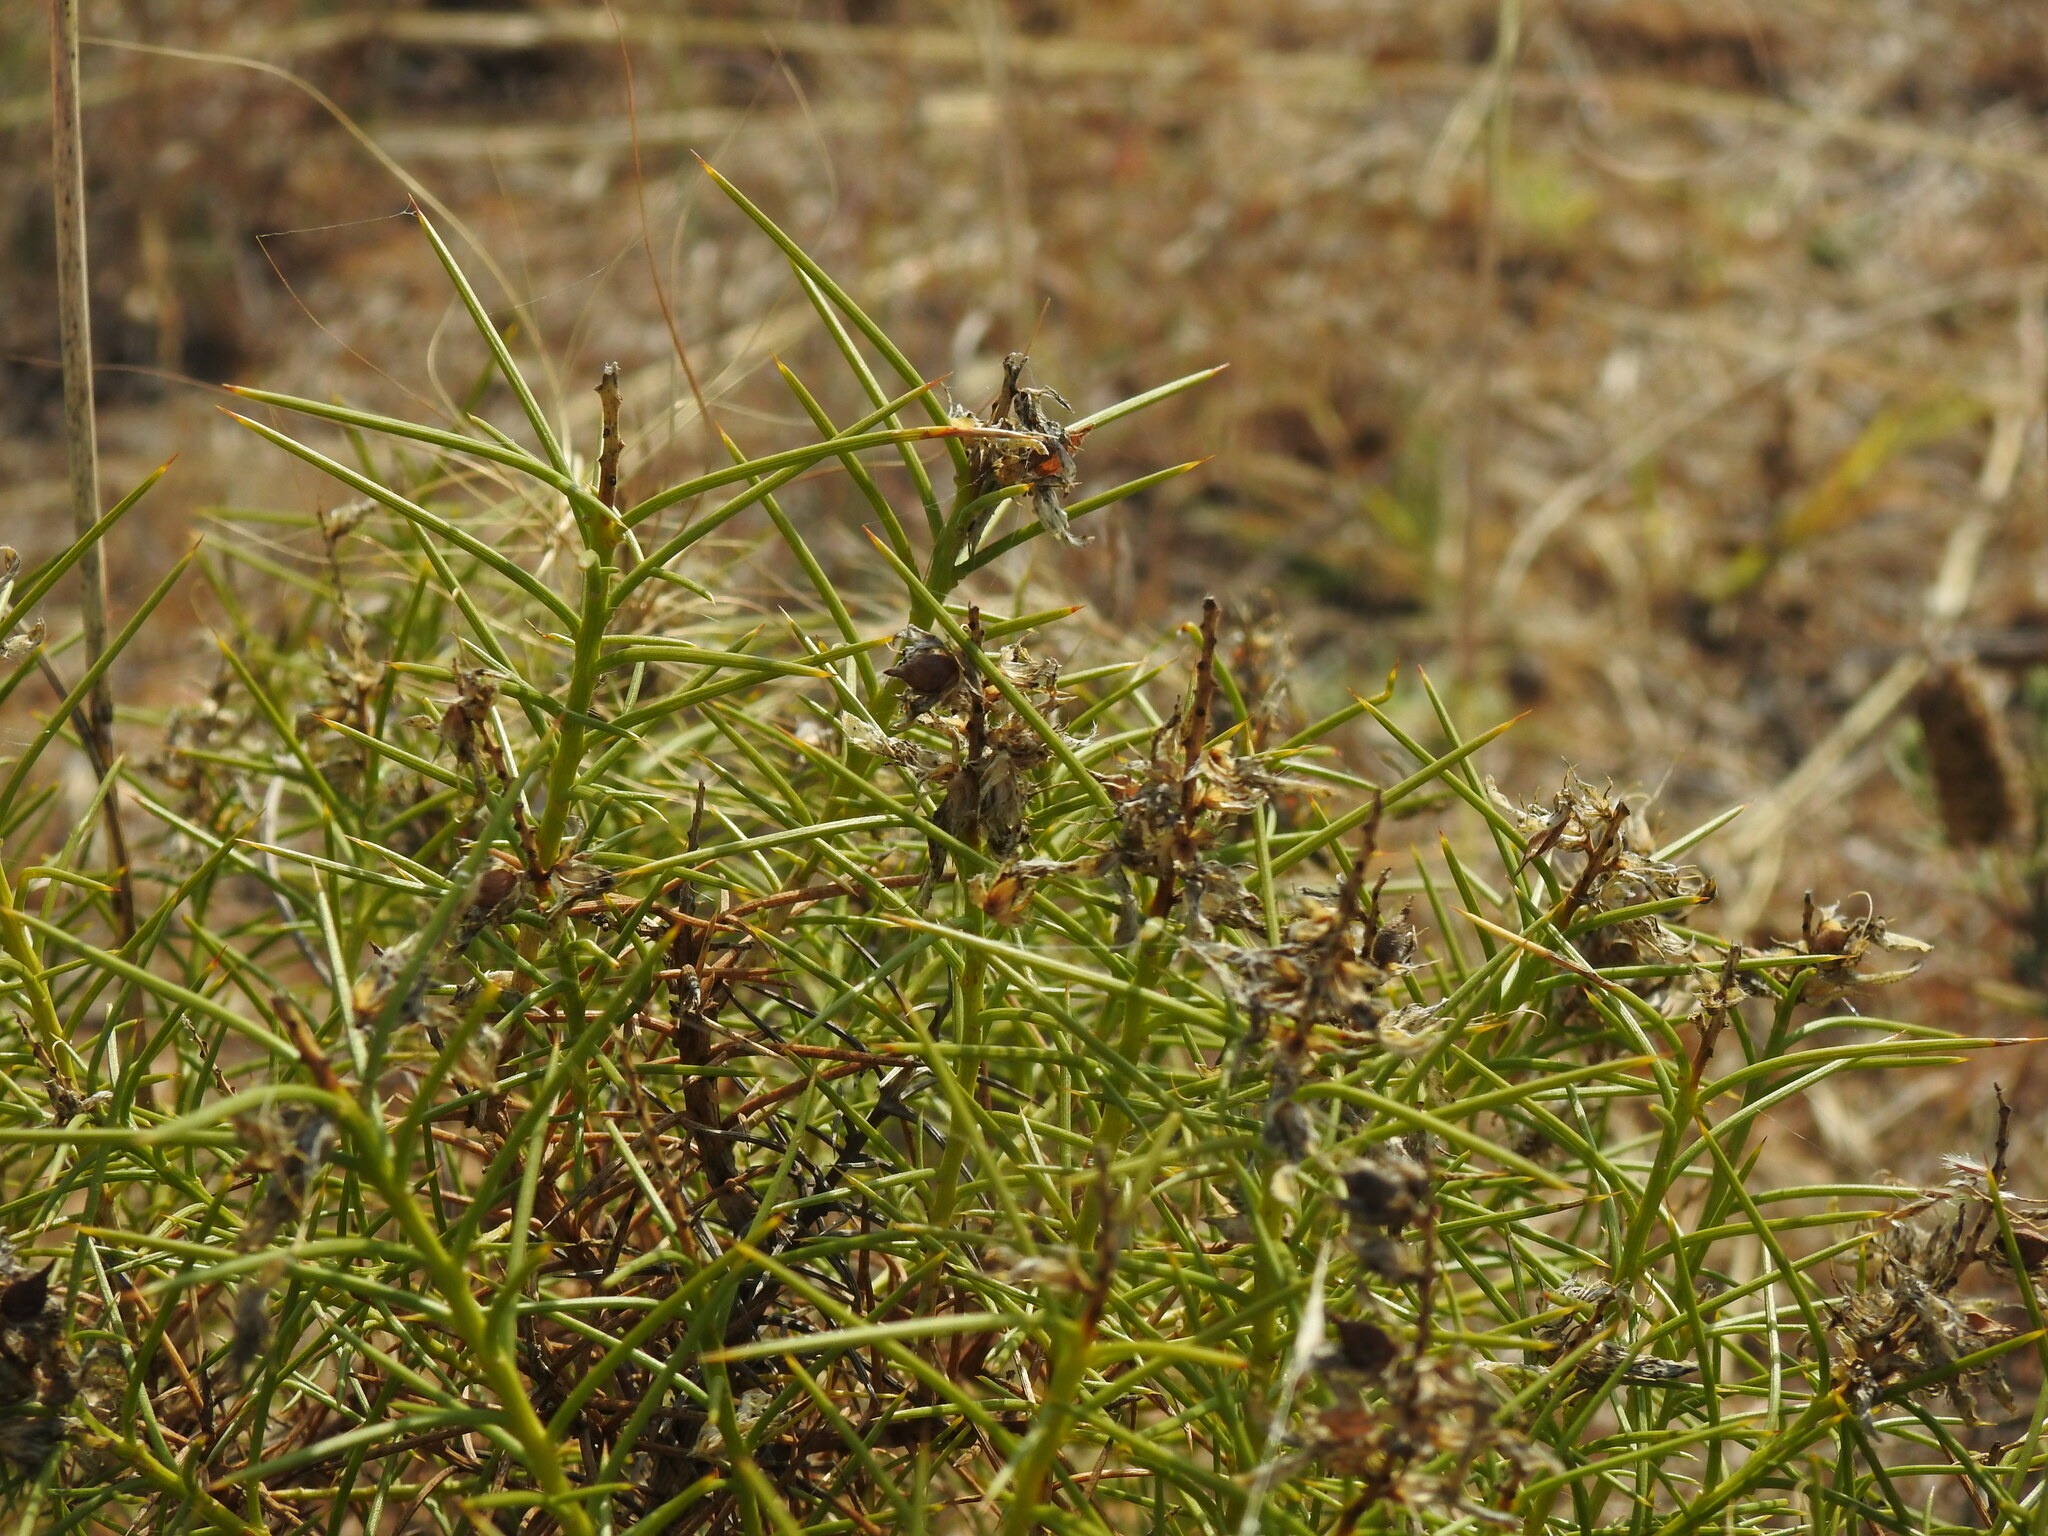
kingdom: Plantae
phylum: Tracheophyta
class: Magnoliopsida
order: Fabales
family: Fabaceae
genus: Genista
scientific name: Genista hirsuta
